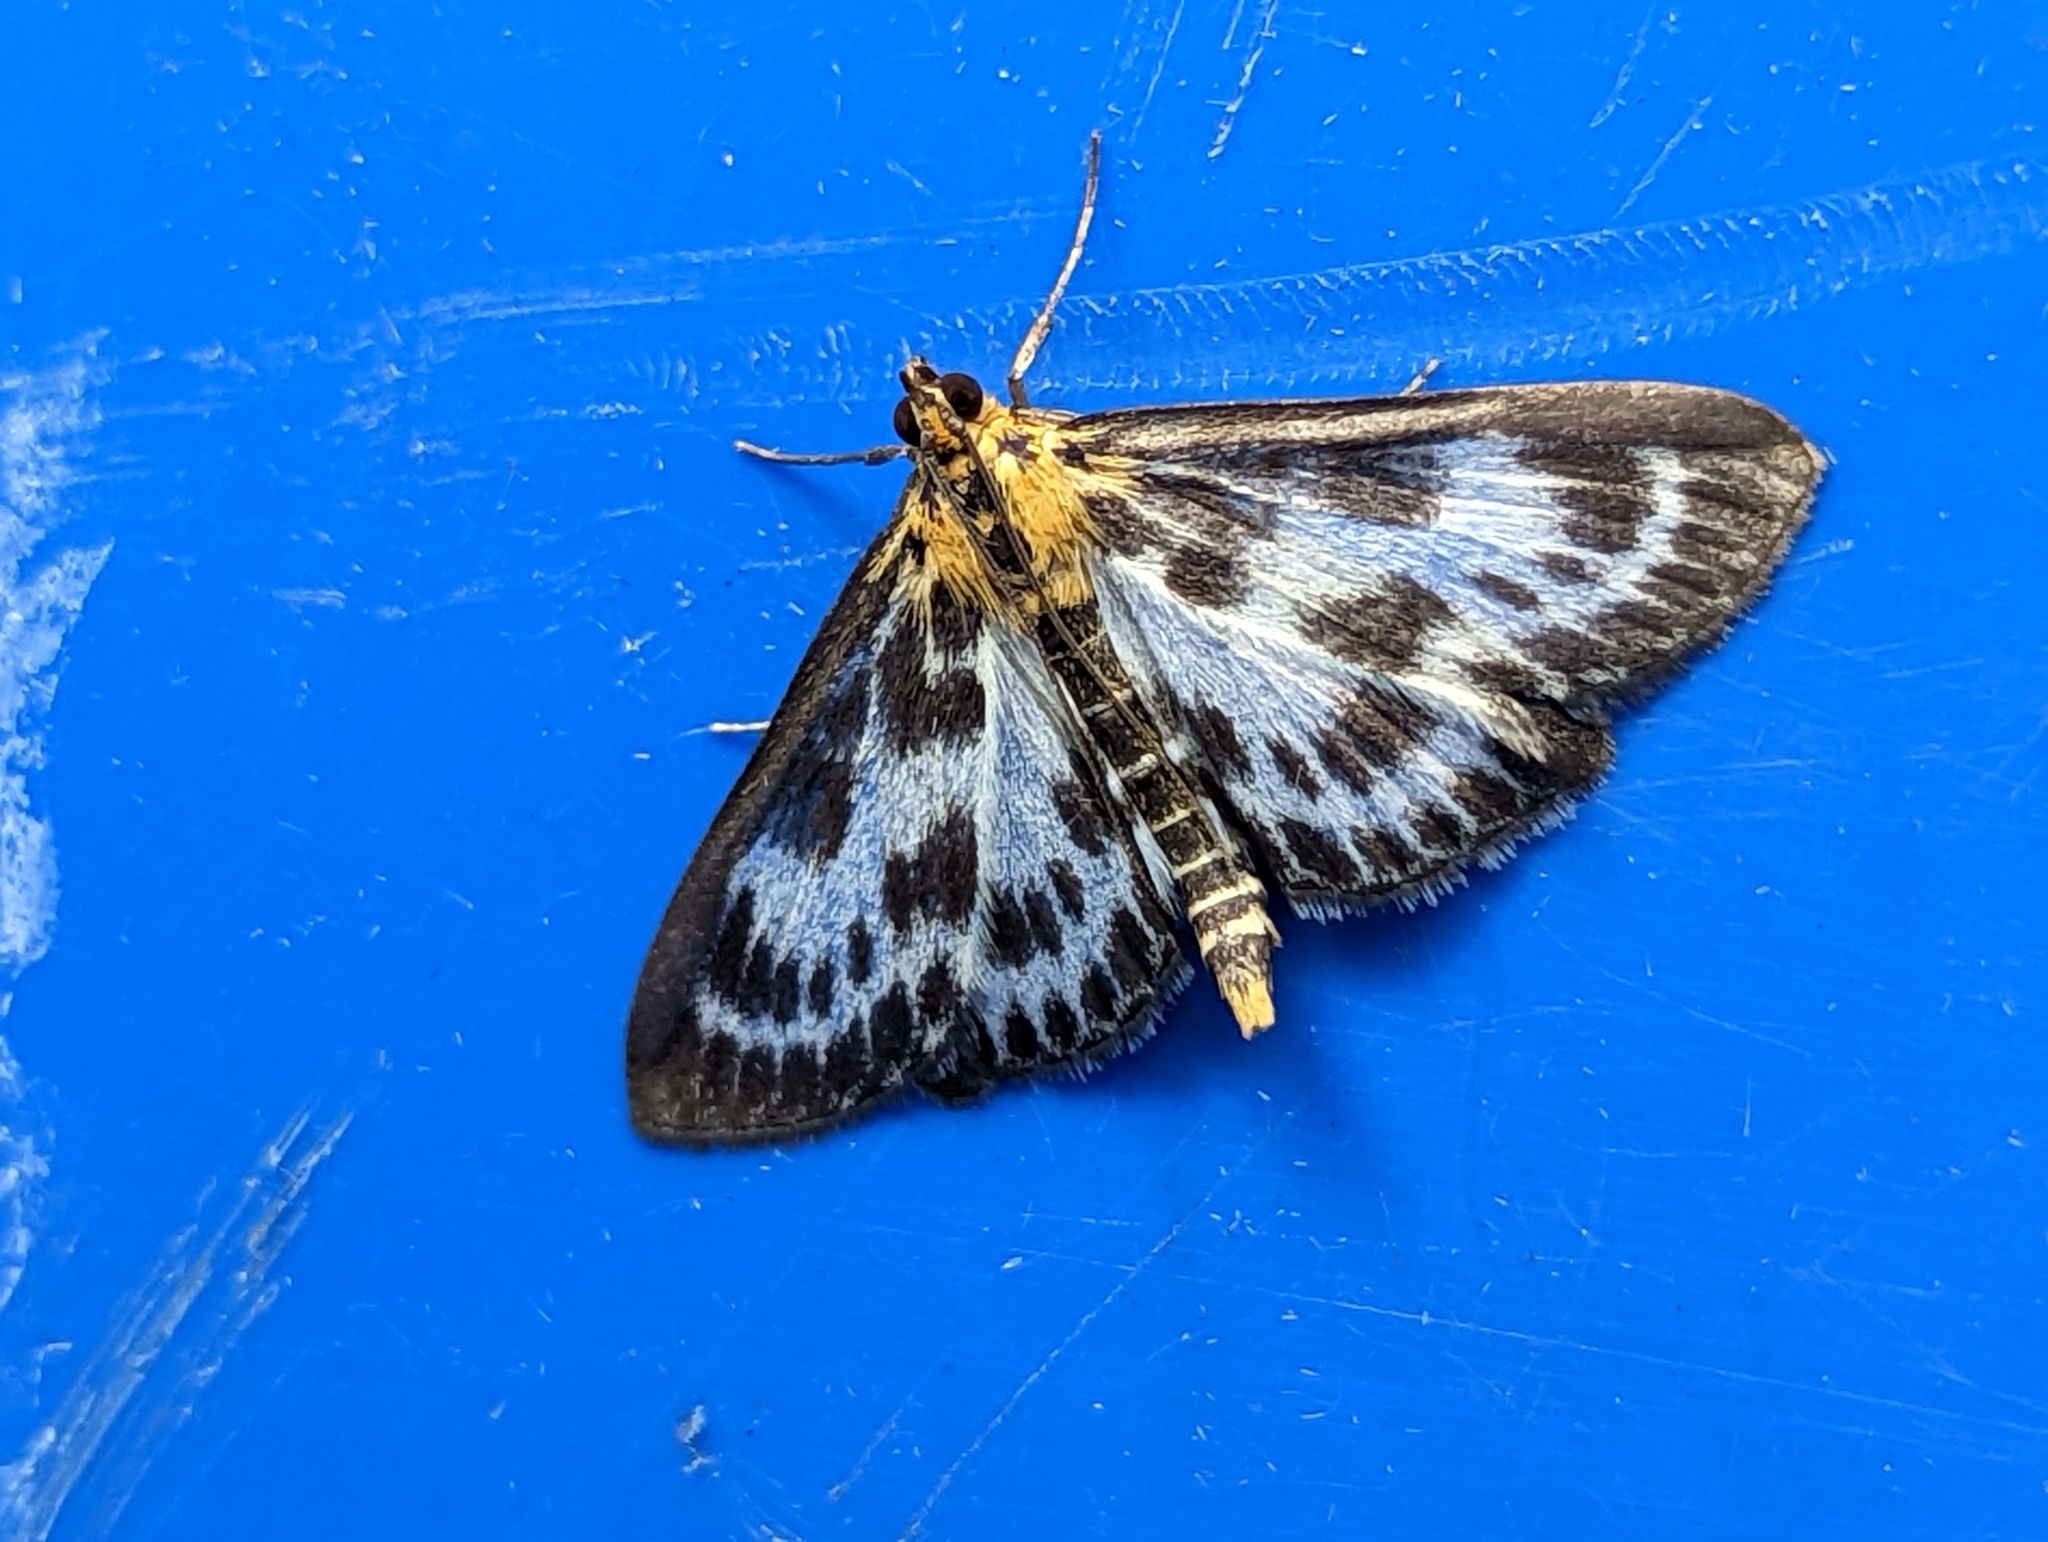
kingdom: Animalia
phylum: Arthropoda
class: Insecta
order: Lepidoptera
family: Crambidae
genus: Anania
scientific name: Anania hortulata
